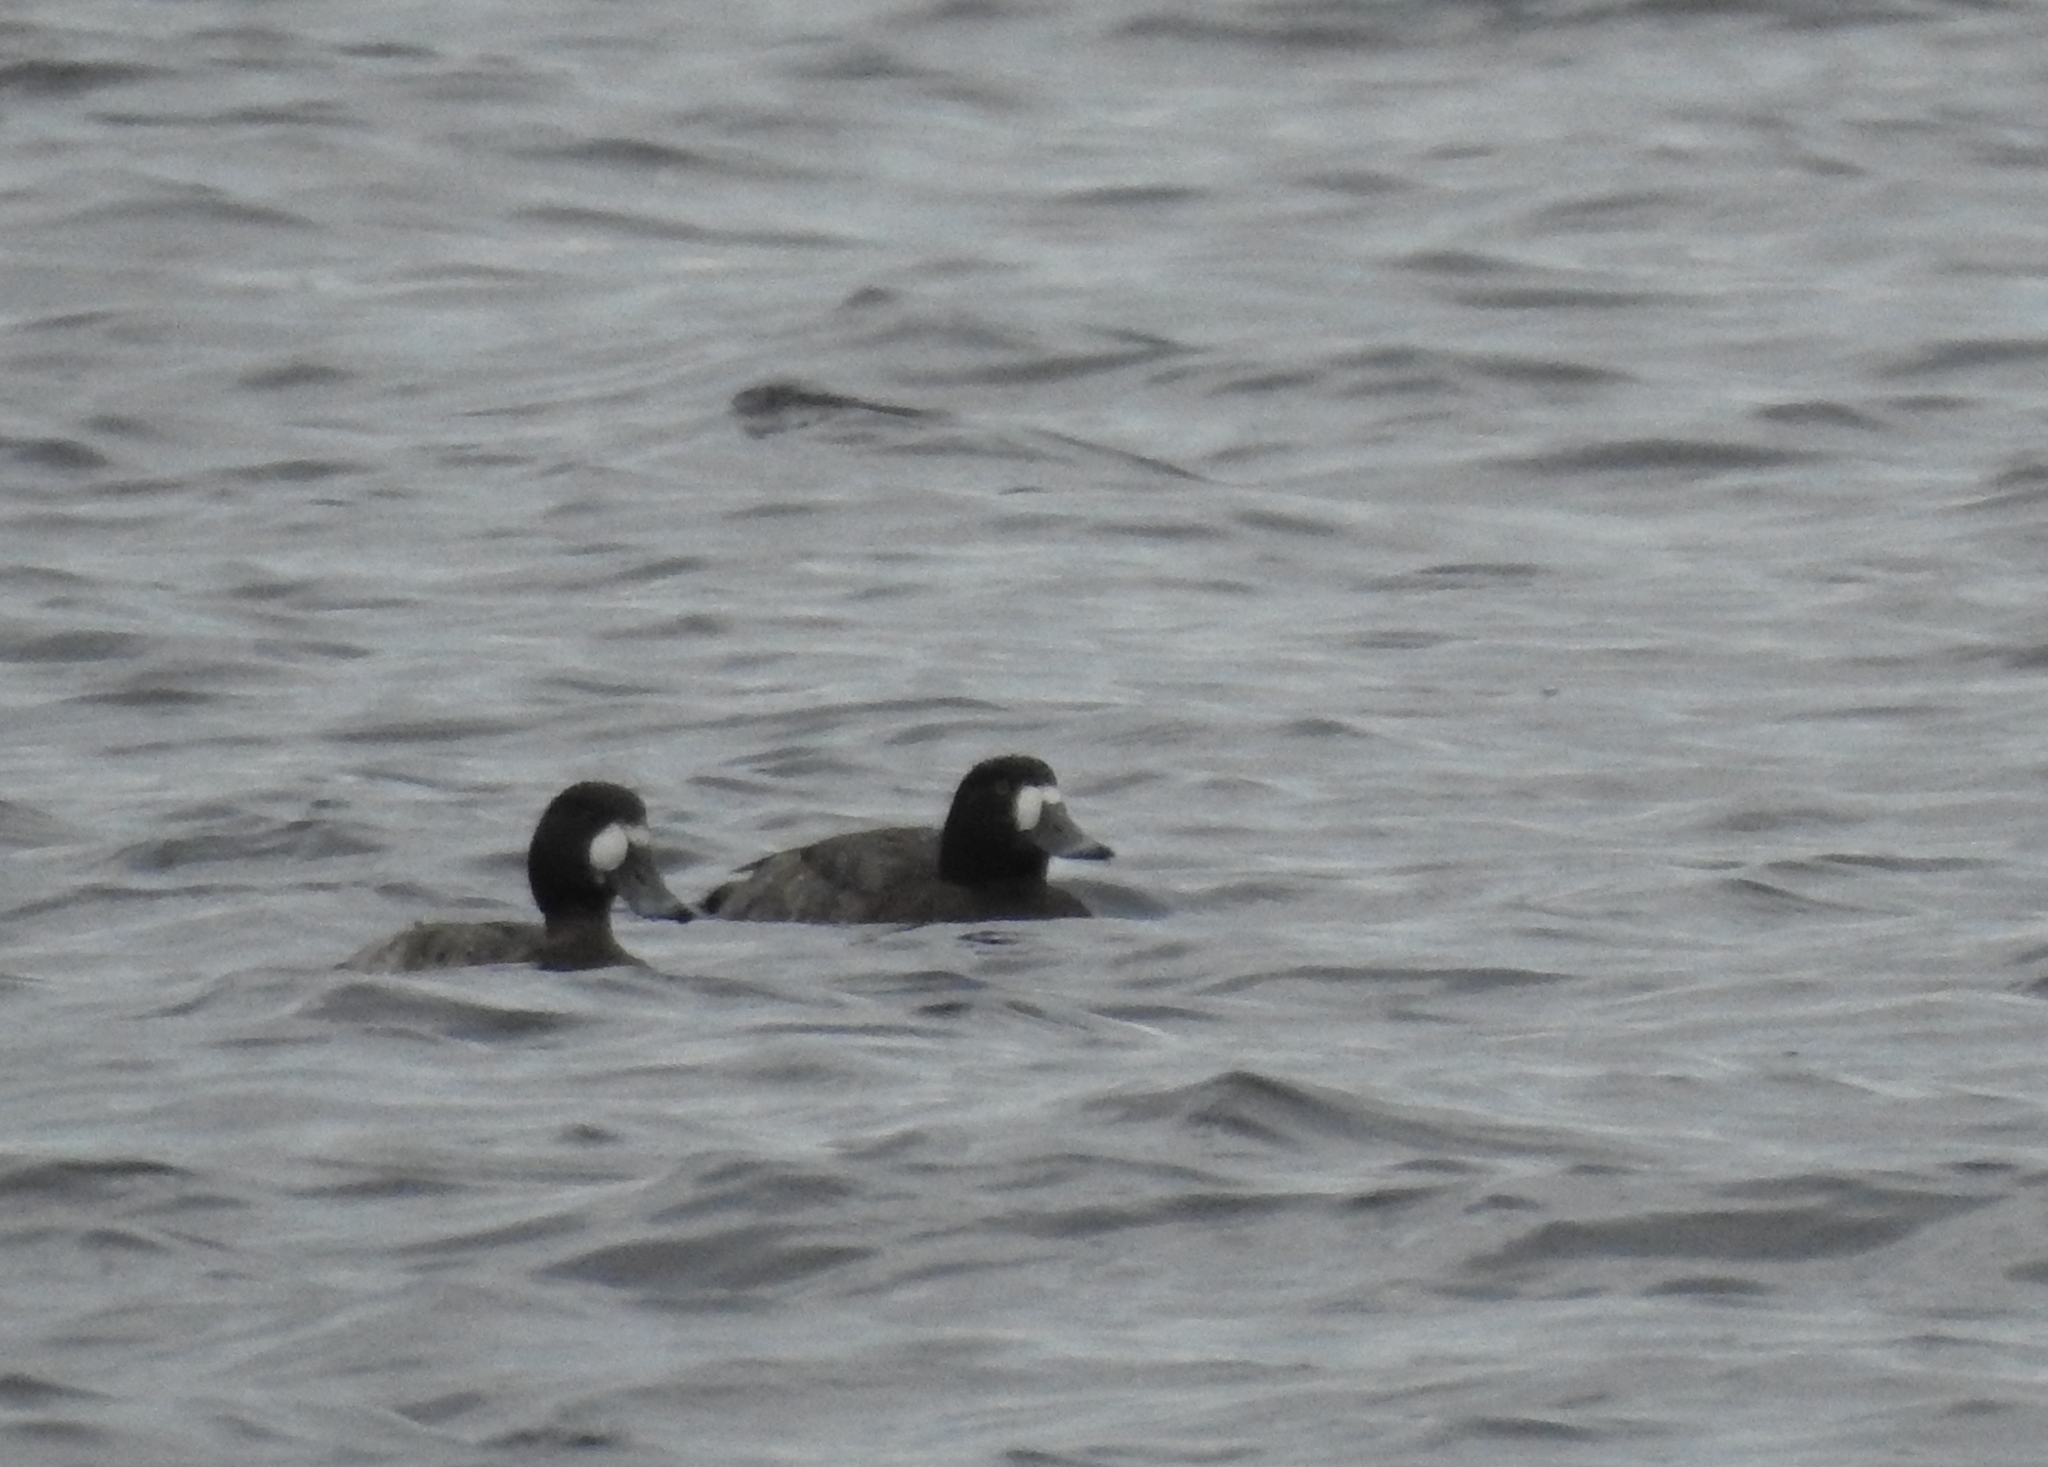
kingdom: Animalia
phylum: Chordata
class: Aves
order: Anseriformes
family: Anatidae
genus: Aythya
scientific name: Aythya marila
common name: Greater scaup
